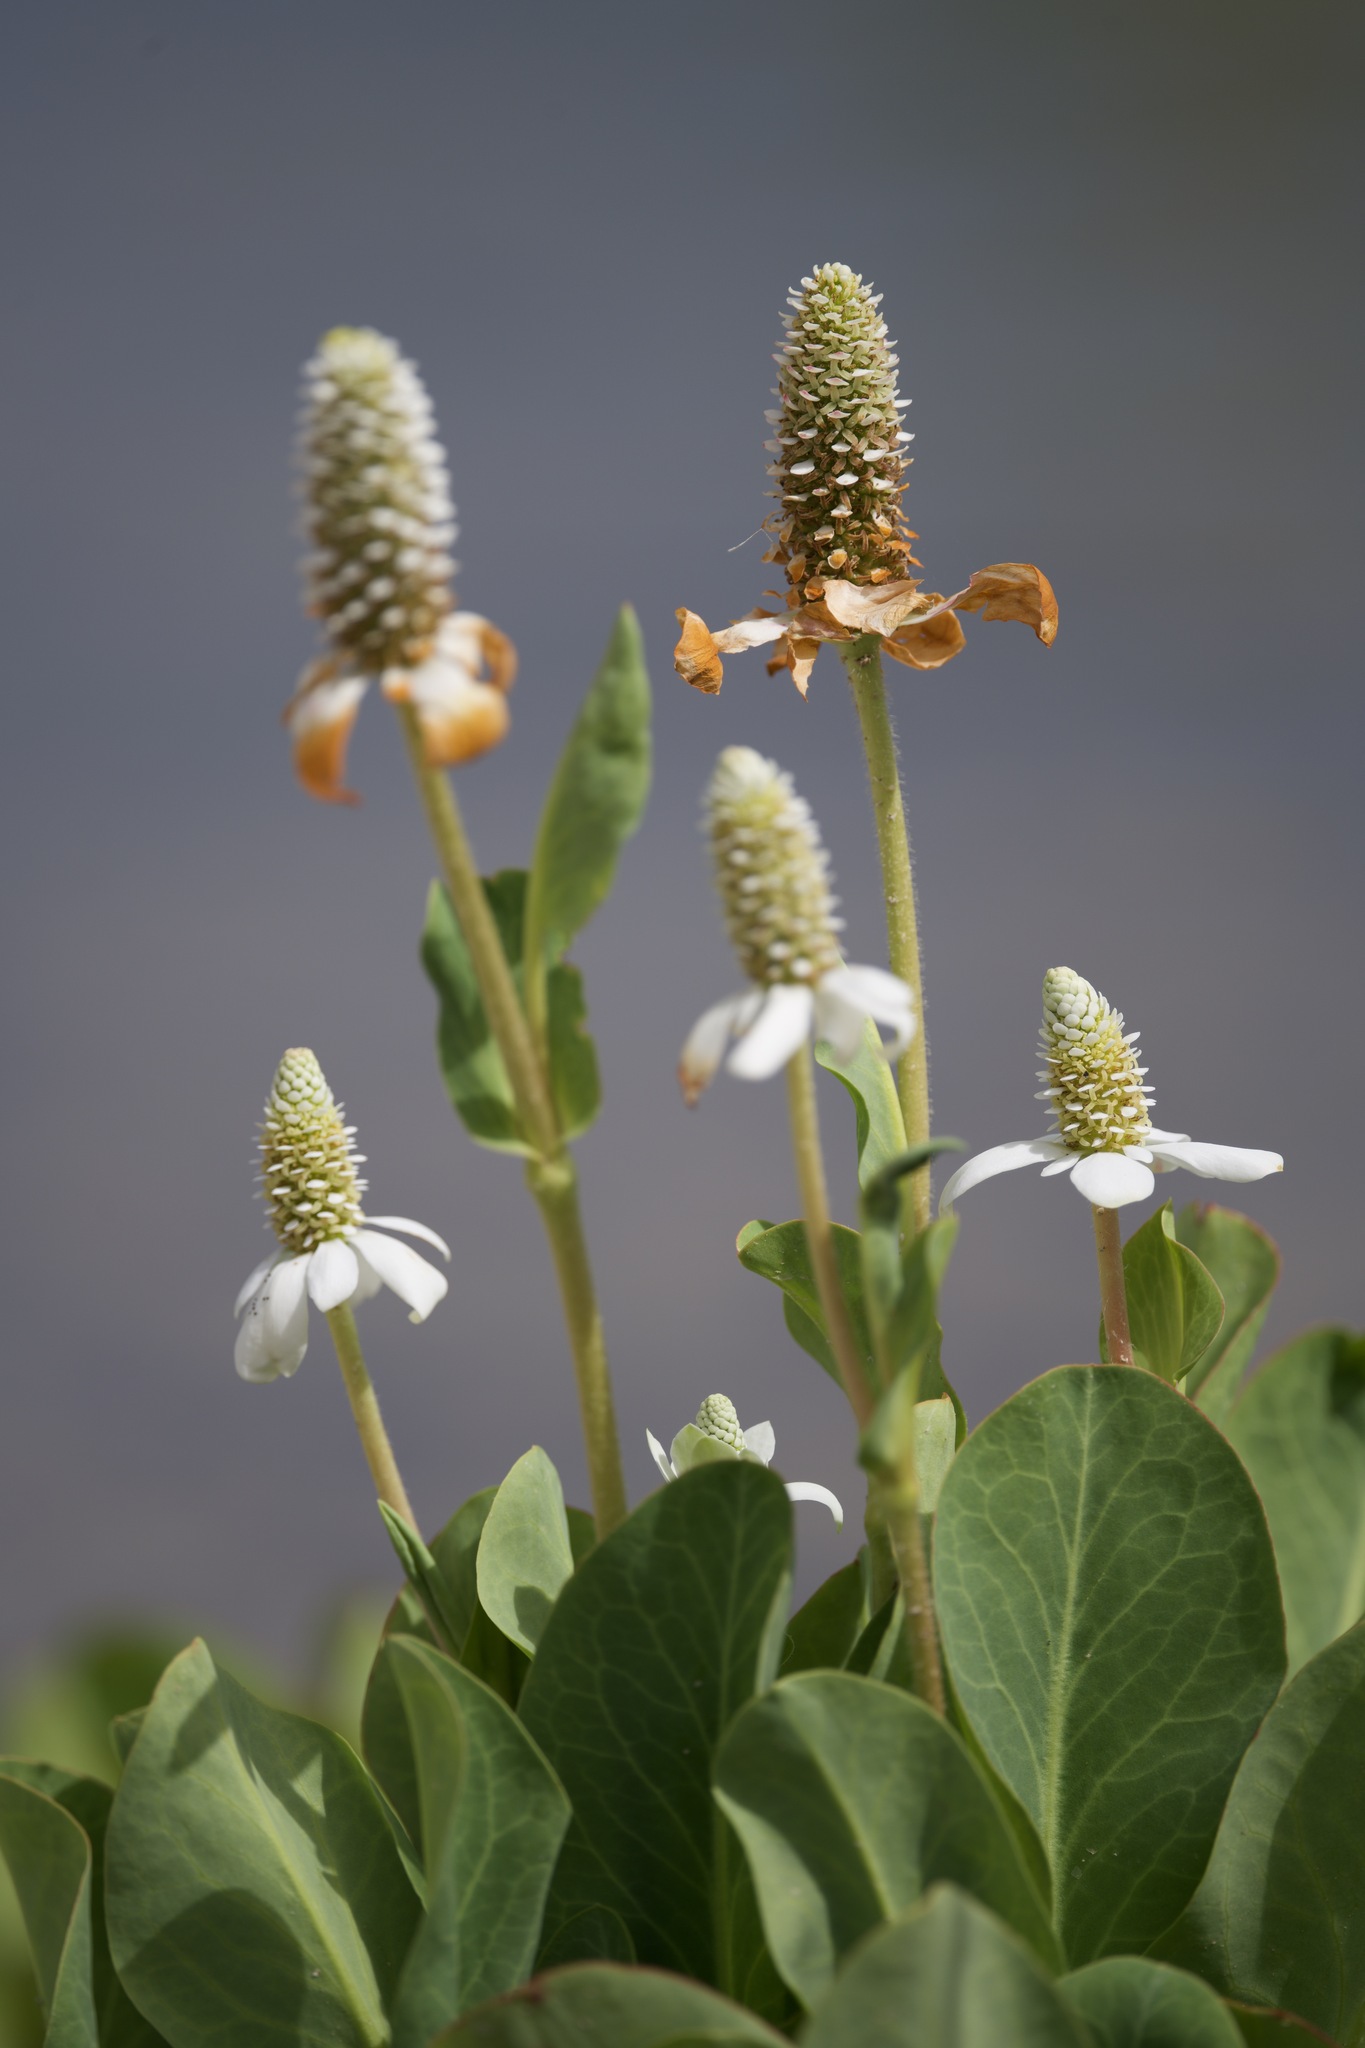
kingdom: Plantae
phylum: Tracheophyta
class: Magnoliopsida
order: Piperales
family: Saururaceae
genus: Anemopsis
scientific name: Anemopsis californica
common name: Apache-beads
